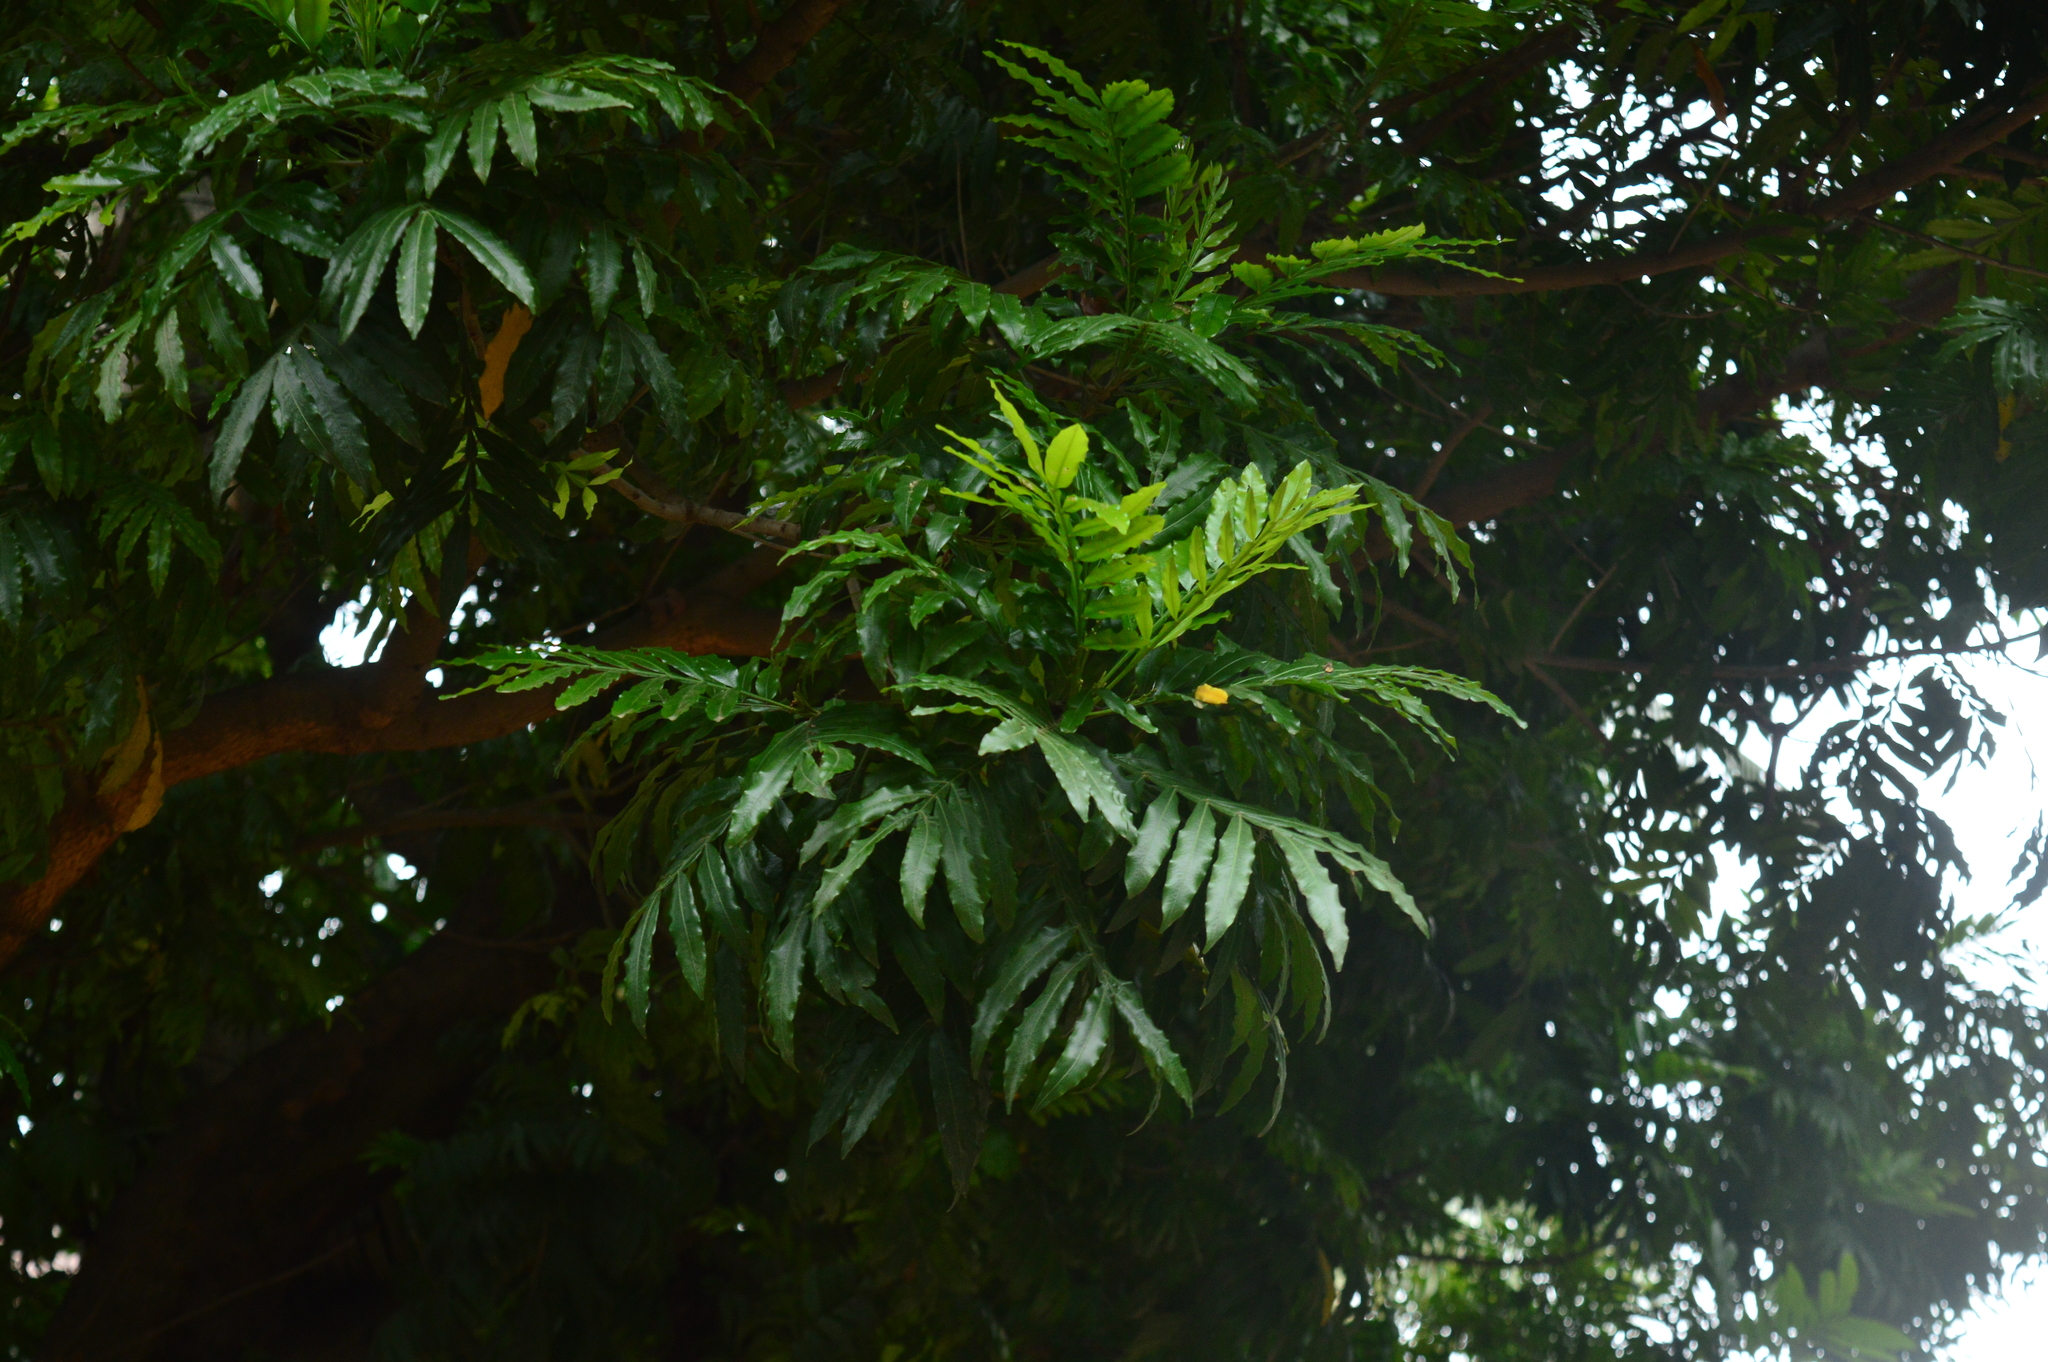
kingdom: Plantae
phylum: Tracheophyta
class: Magnoliopsida
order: Sapindales
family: Sapindaceae
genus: Filicium
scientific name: Filicium decipiens
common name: Ferntree
